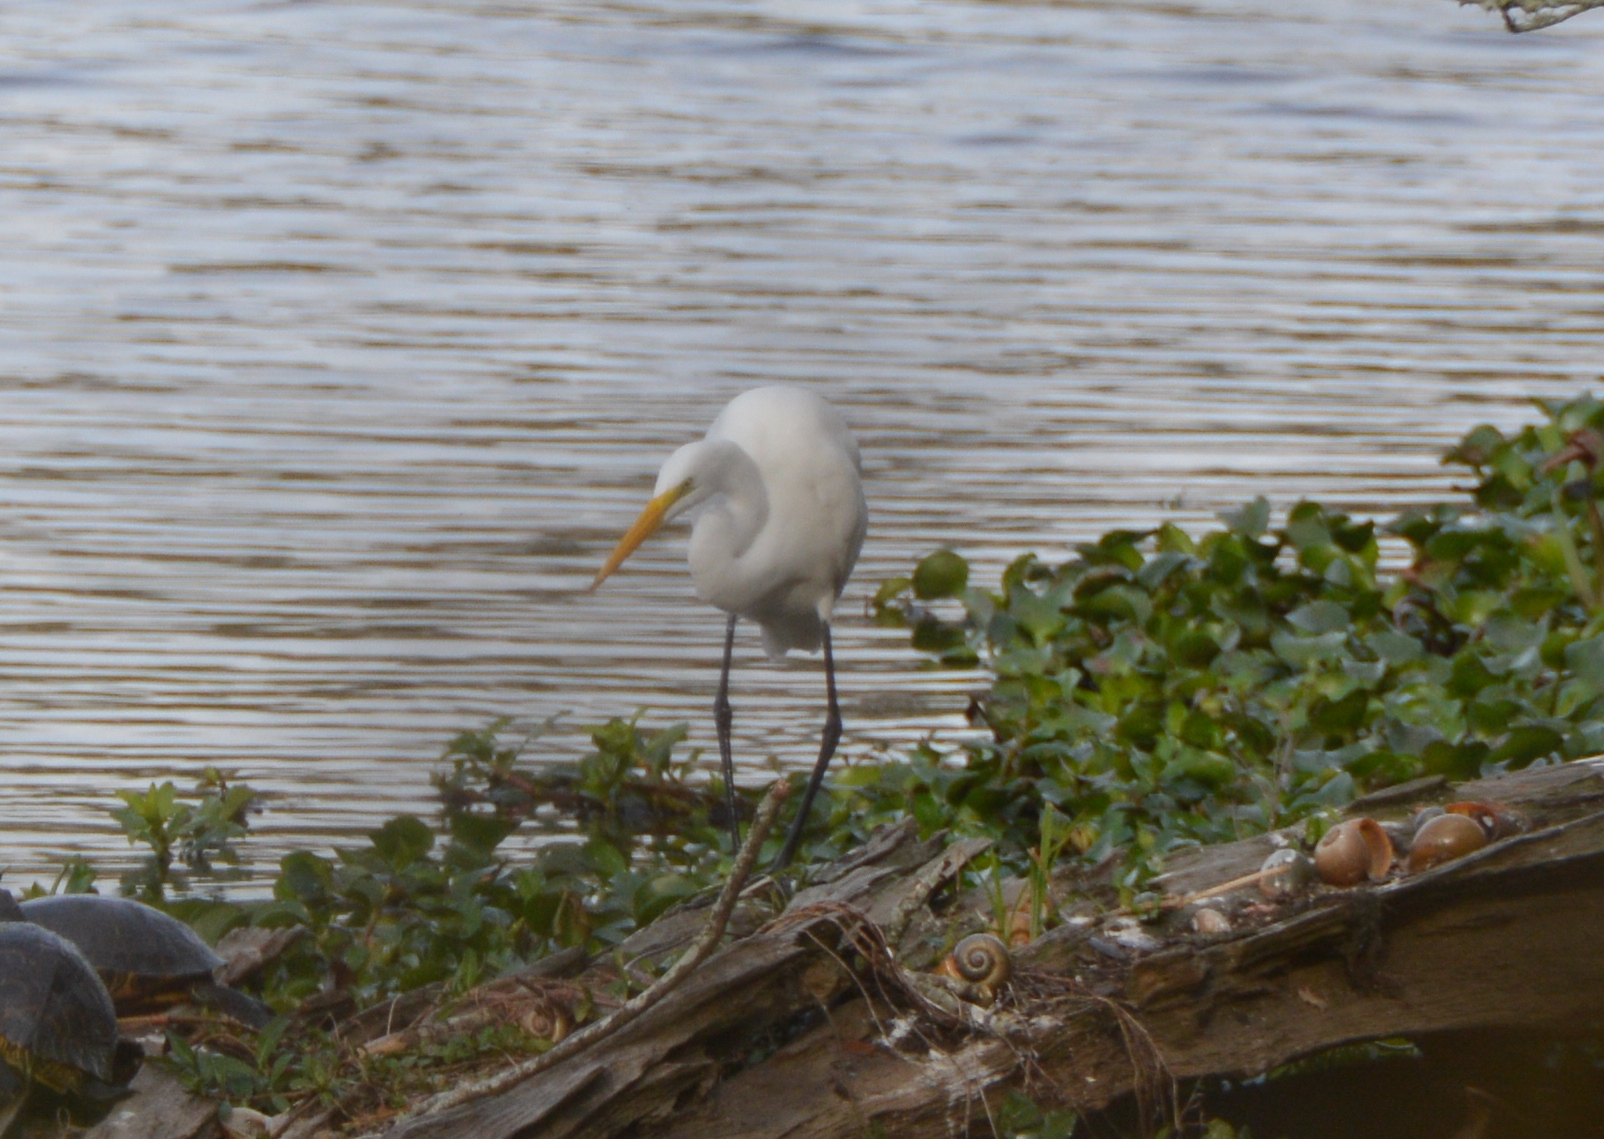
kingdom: Animalia
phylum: Chordata
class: Aves
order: Pelecaniformes
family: Ardeidae
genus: Ardea
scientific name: Ardea alba
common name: Great egret
